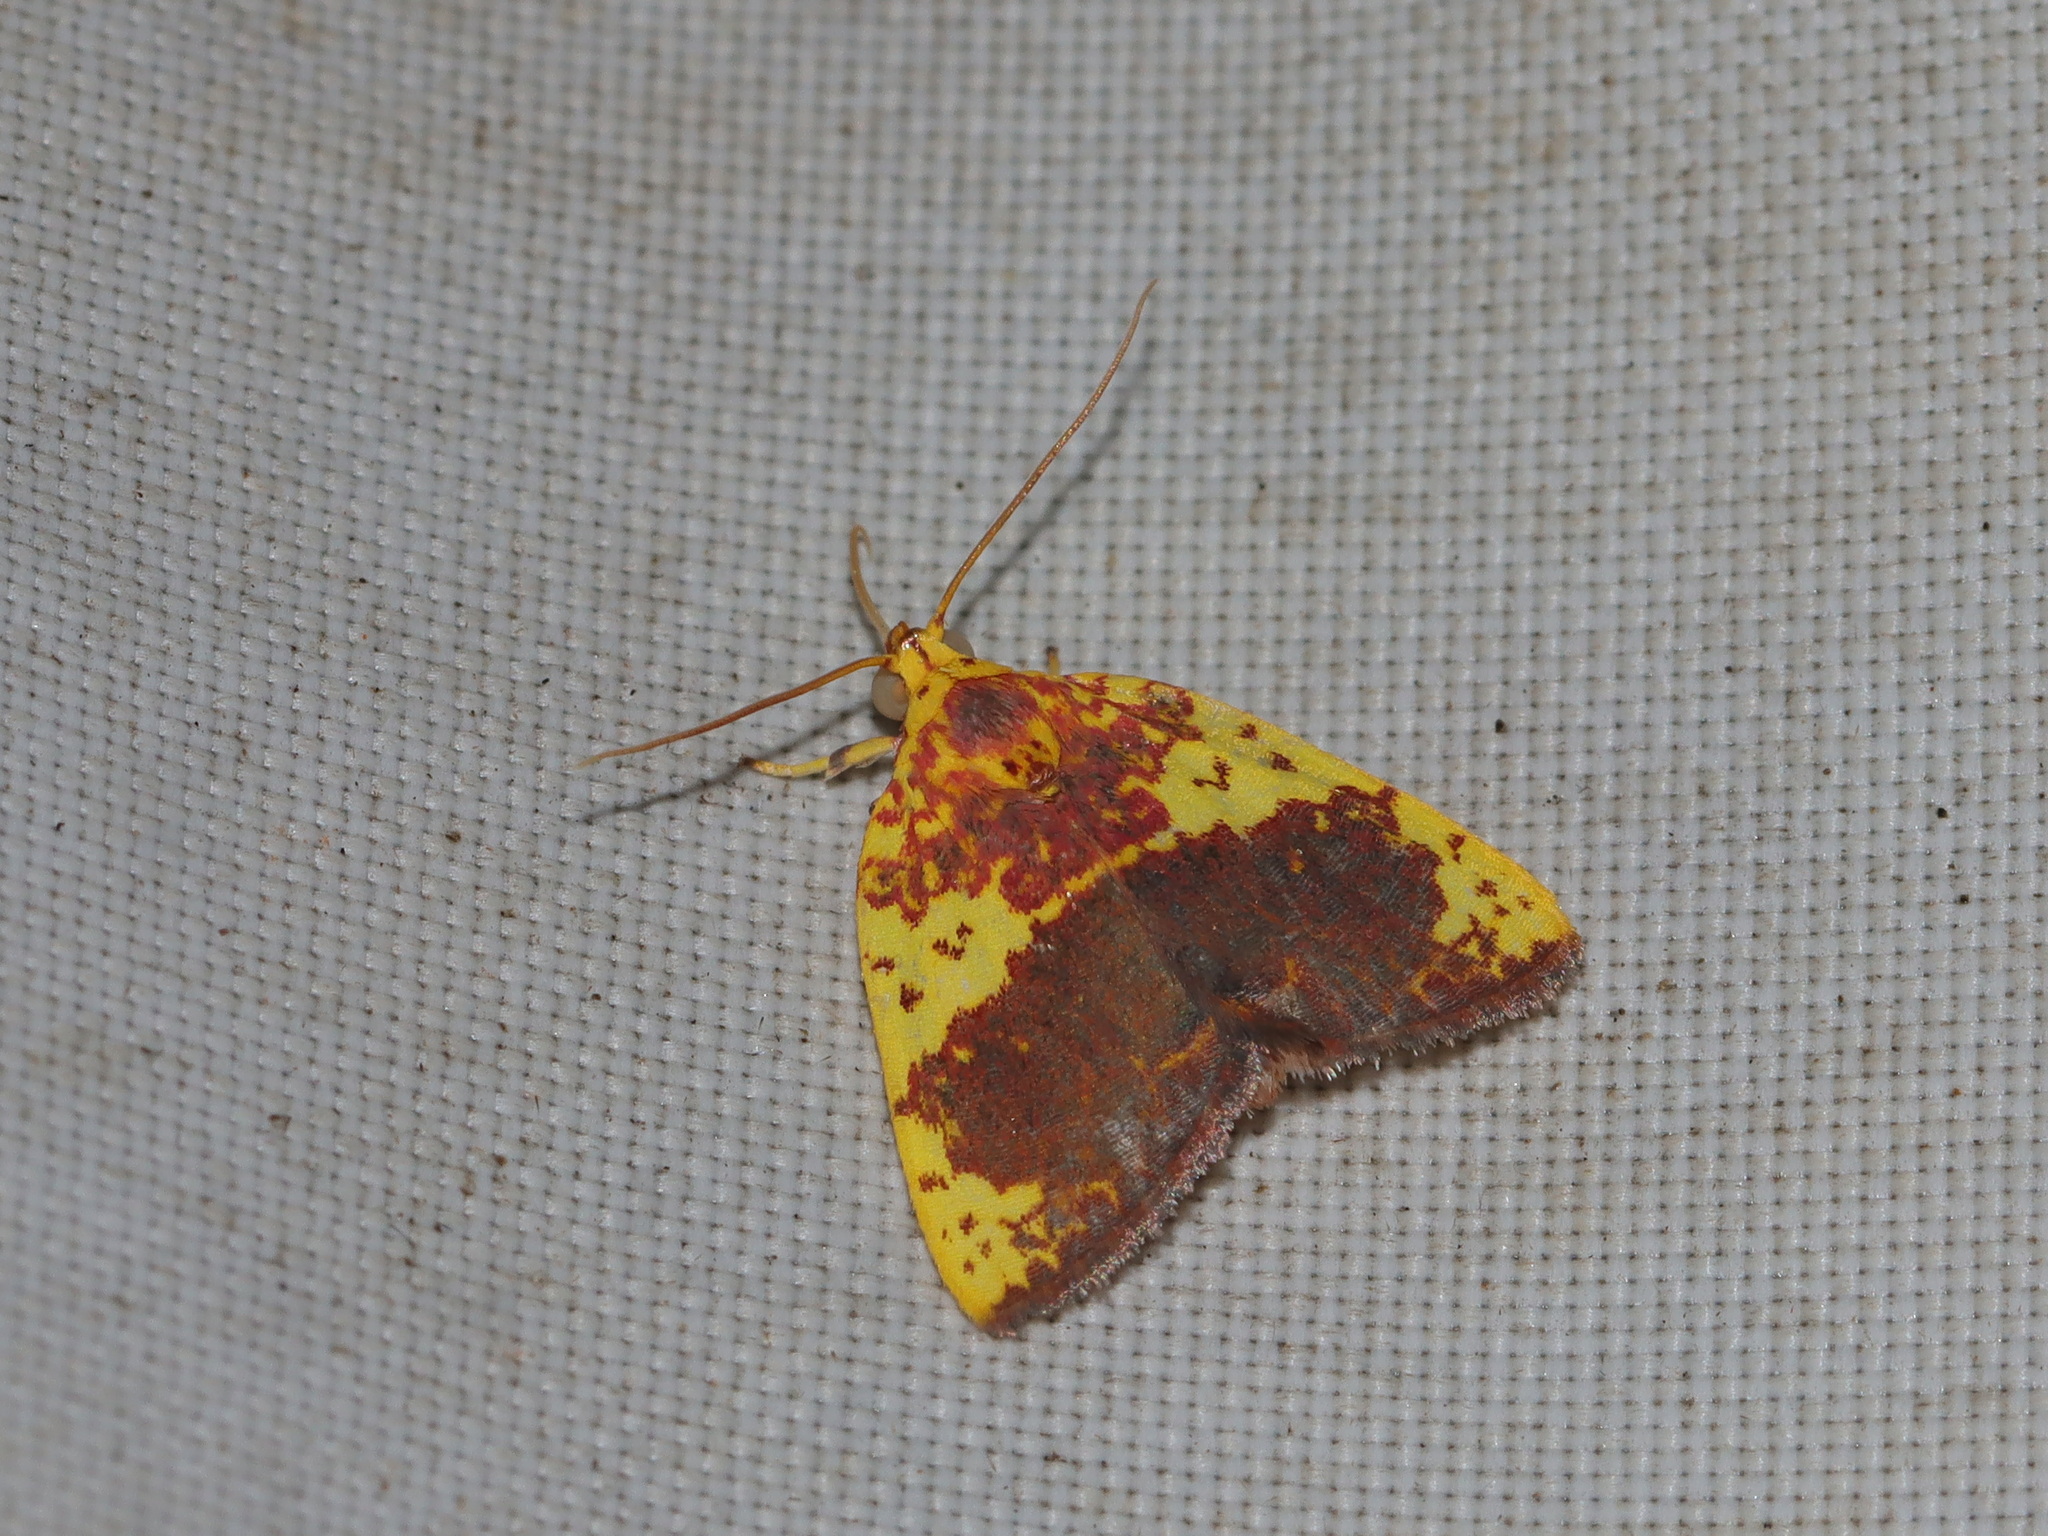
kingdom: Animalia
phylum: Arthropoda
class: Insecta
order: Lepidoptera
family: Nolidae
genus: Siglophora
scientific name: Siglophora haemoxantha
